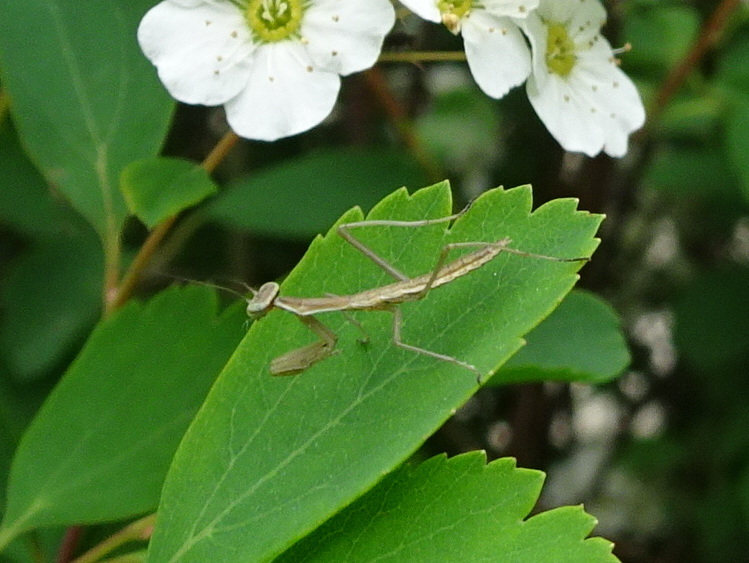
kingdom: Animalia
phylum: Arthropoda
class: Insecta
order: Mantodea
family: Mantidae
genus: Tenodera
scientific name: Tenodera sinensis
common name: Chinese mantis
